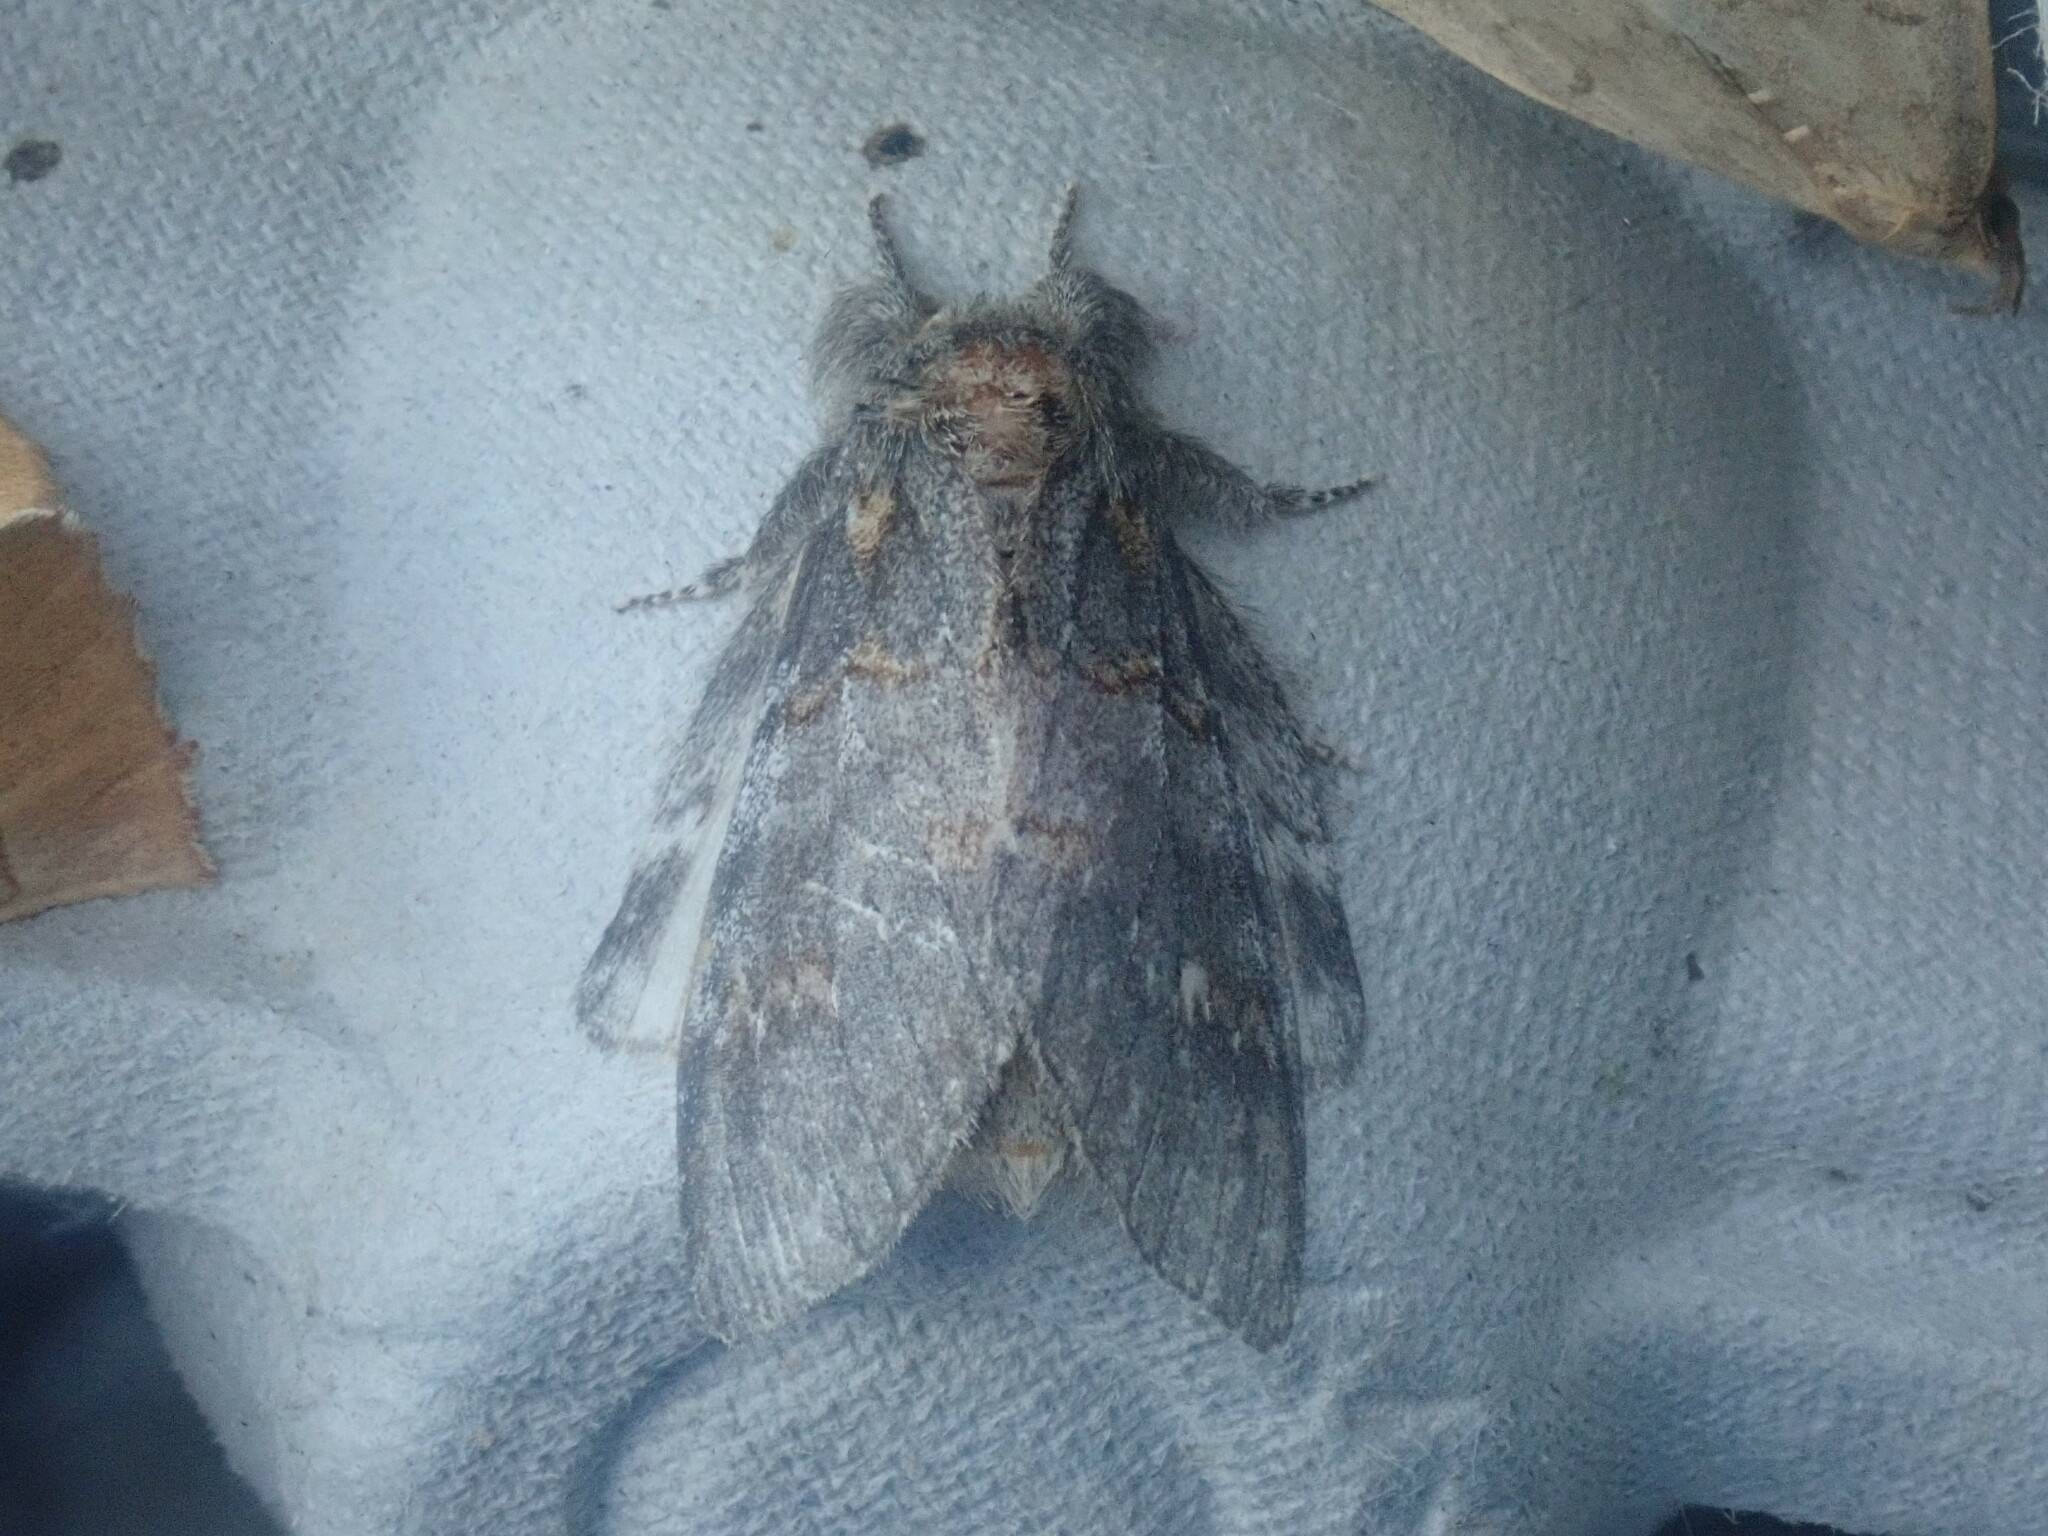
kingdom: Animalia
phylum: Arthropoda
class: Insecta
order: Lepidoptera
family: Notodontidae
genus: Peridea
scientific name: Peridea angulosa
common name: Angulose prominent
